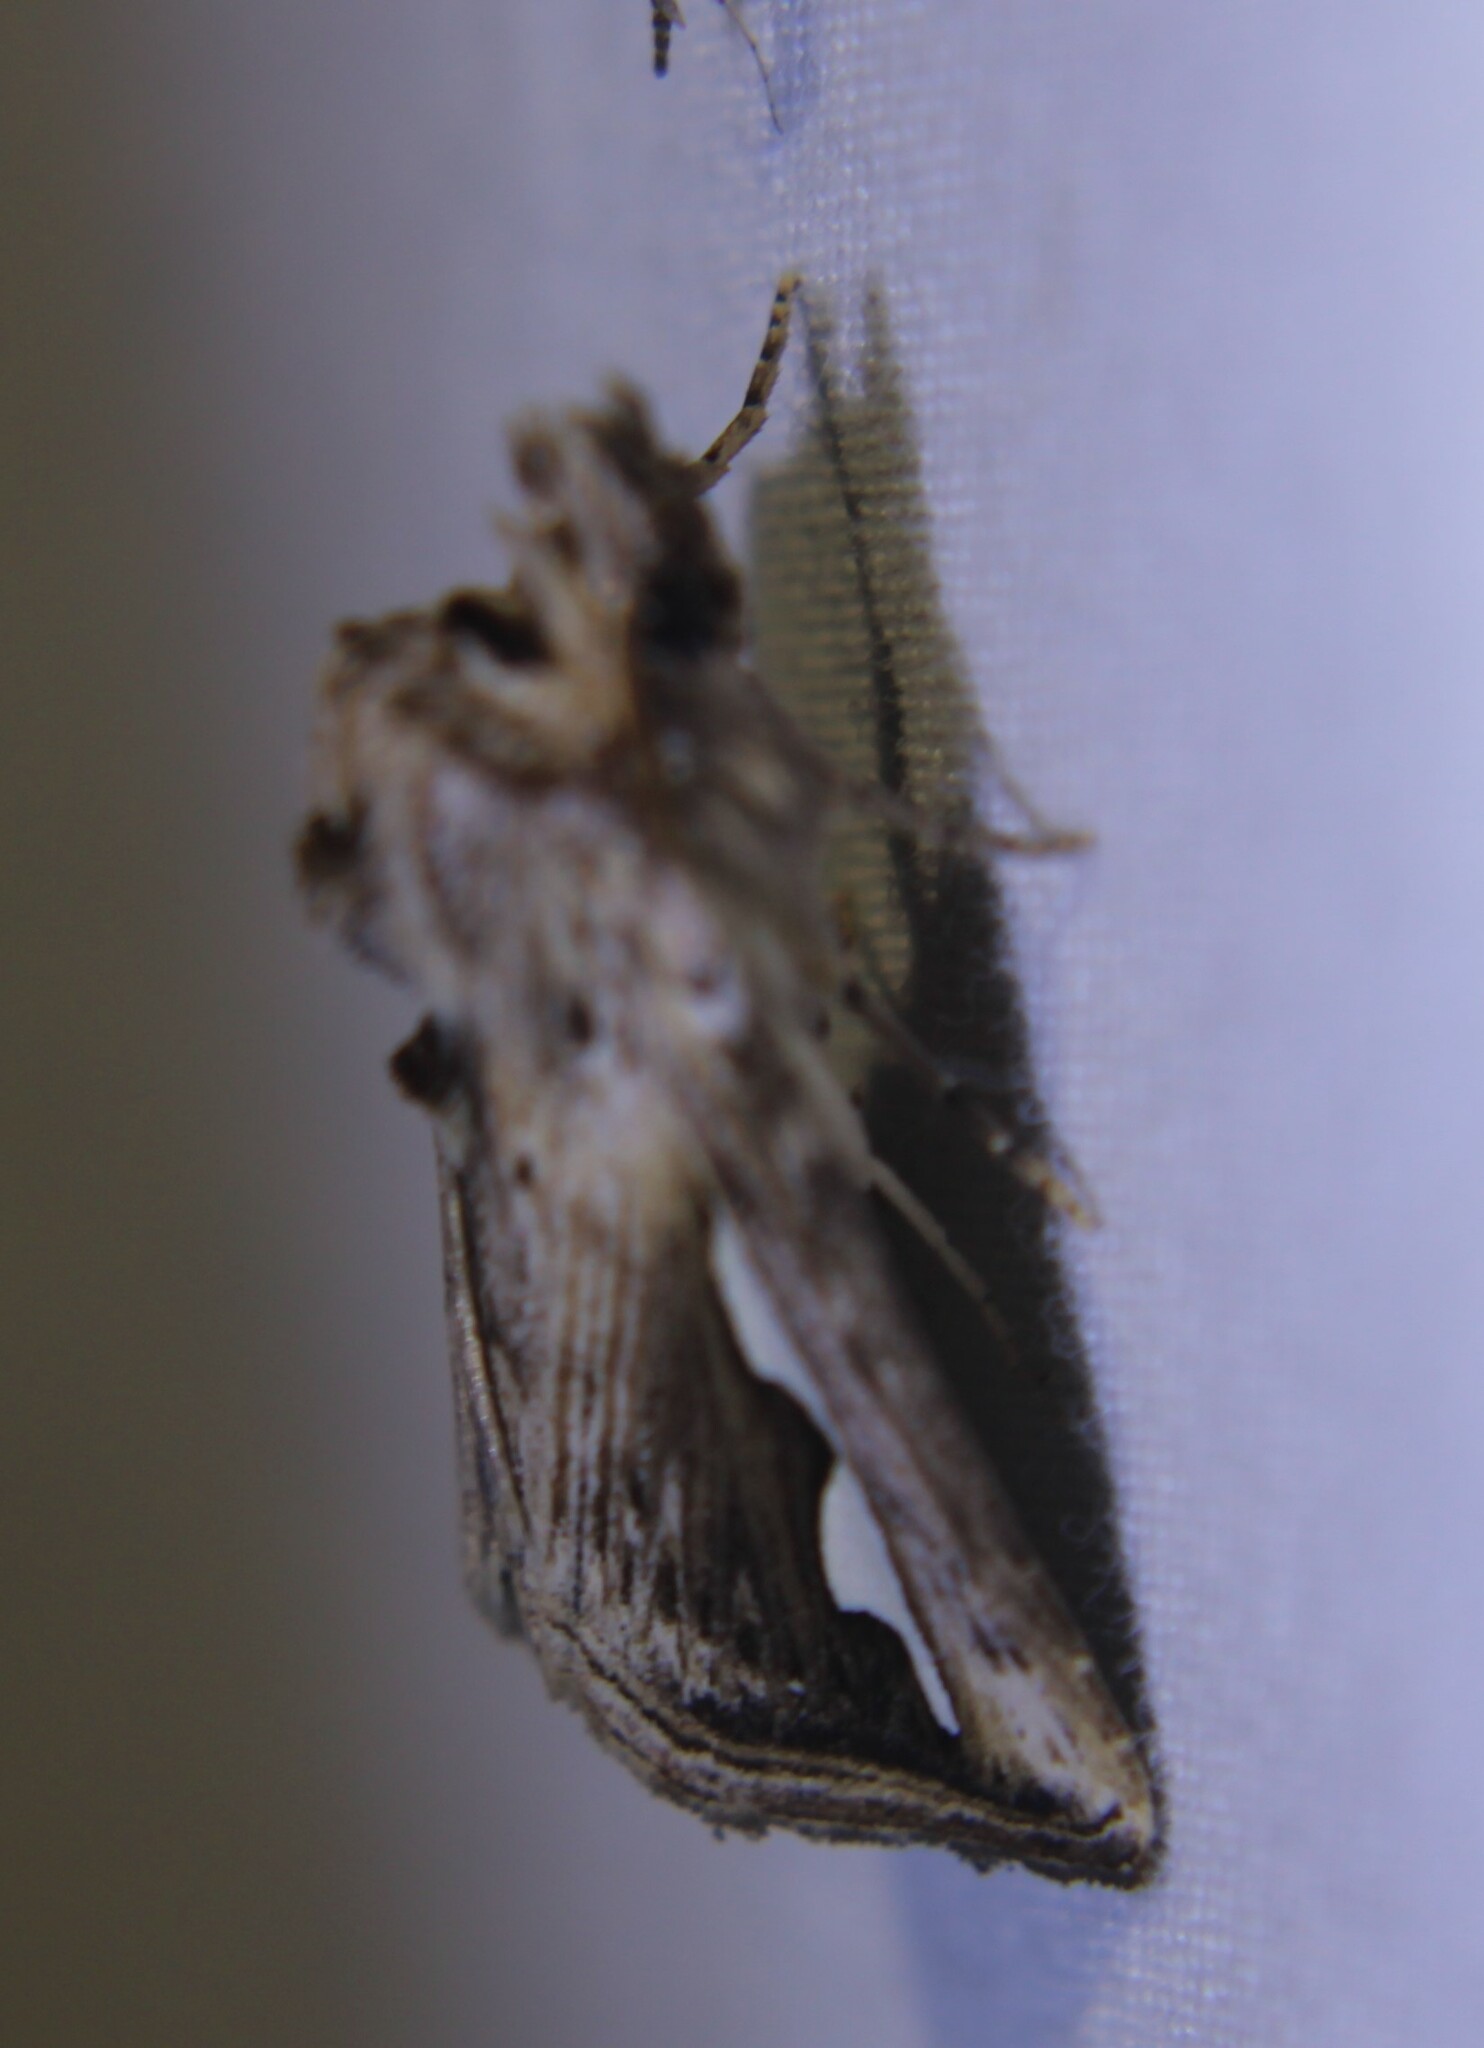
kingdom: Animalia
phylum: Arthropoda
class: Insecta
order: Lepidoptera
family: Notodontidae
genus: Didugua
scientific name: Didugua argentilinea
